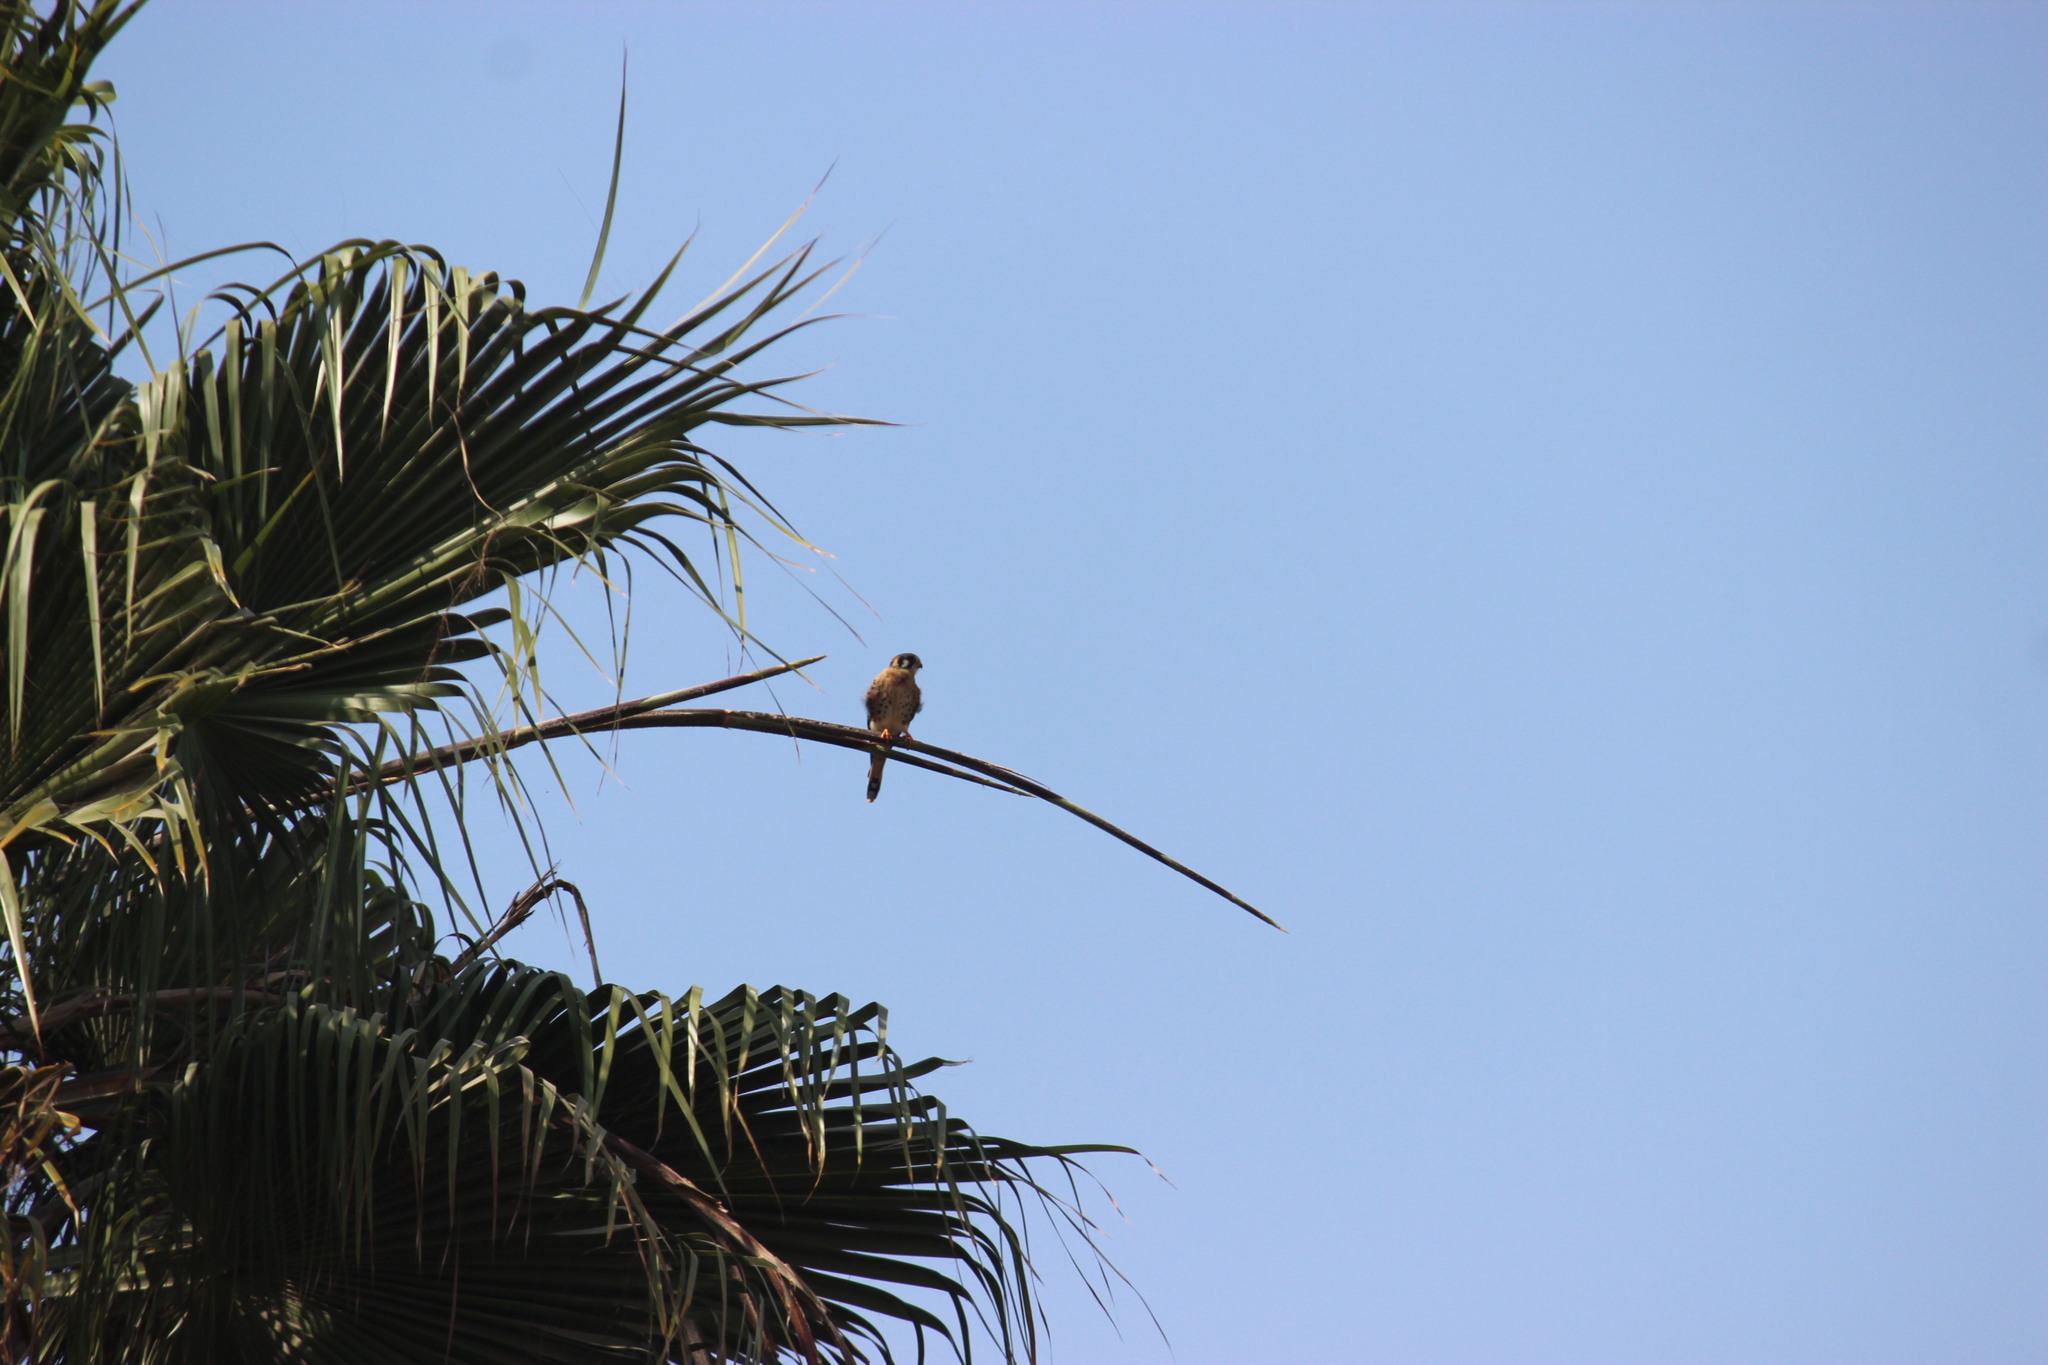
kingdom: Animalia
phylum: Chordata
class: Aves
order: Falconiformes
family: Falconidae
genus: Falco
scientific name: Falco sparverius
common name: American kestrel
